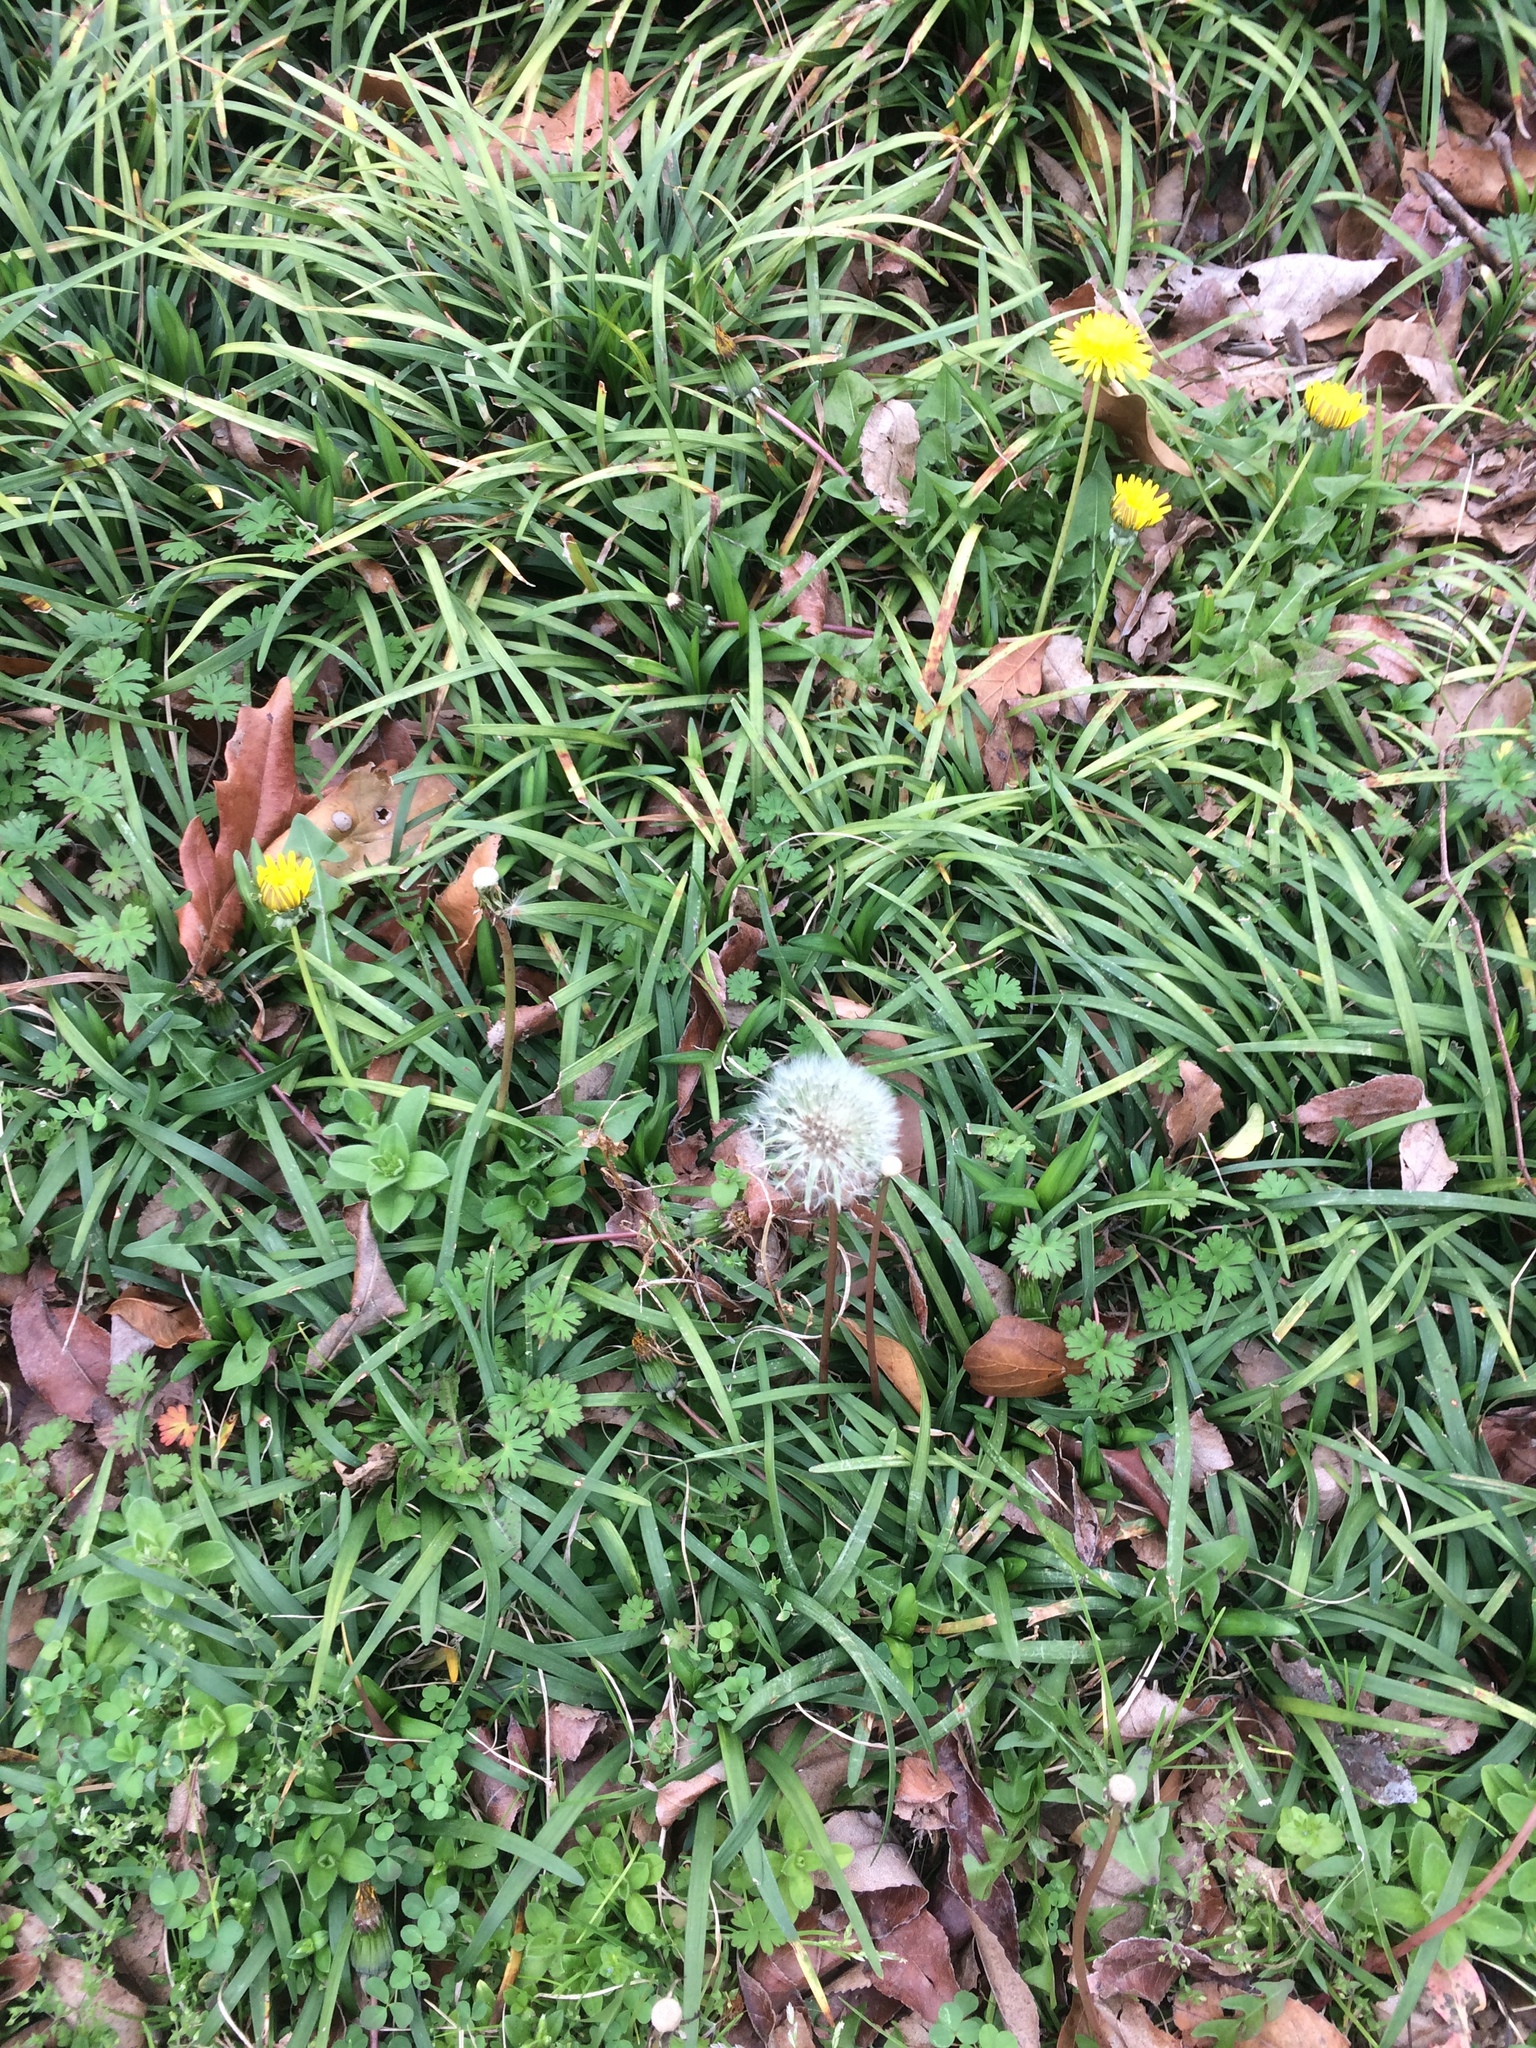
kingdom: Plantae
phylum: Tracheophyta
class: Magnoliopsida
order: Asterales
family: Asteraceae
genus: Taraxacum
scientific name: Taraxacum officinale
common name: Common dandelion
